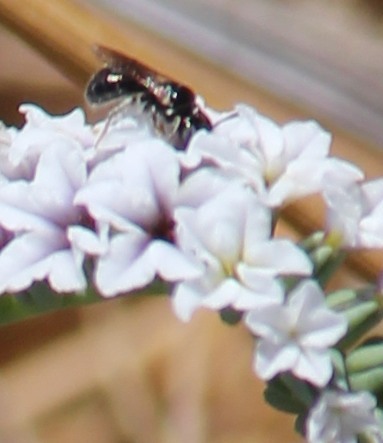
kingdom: Animalia
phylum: Arthropoda
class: Insecta
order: Hymenoptera
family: Apidae
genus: Ceratina
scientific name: Ceratina arizonensis
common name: Arizona small carpenter bee
